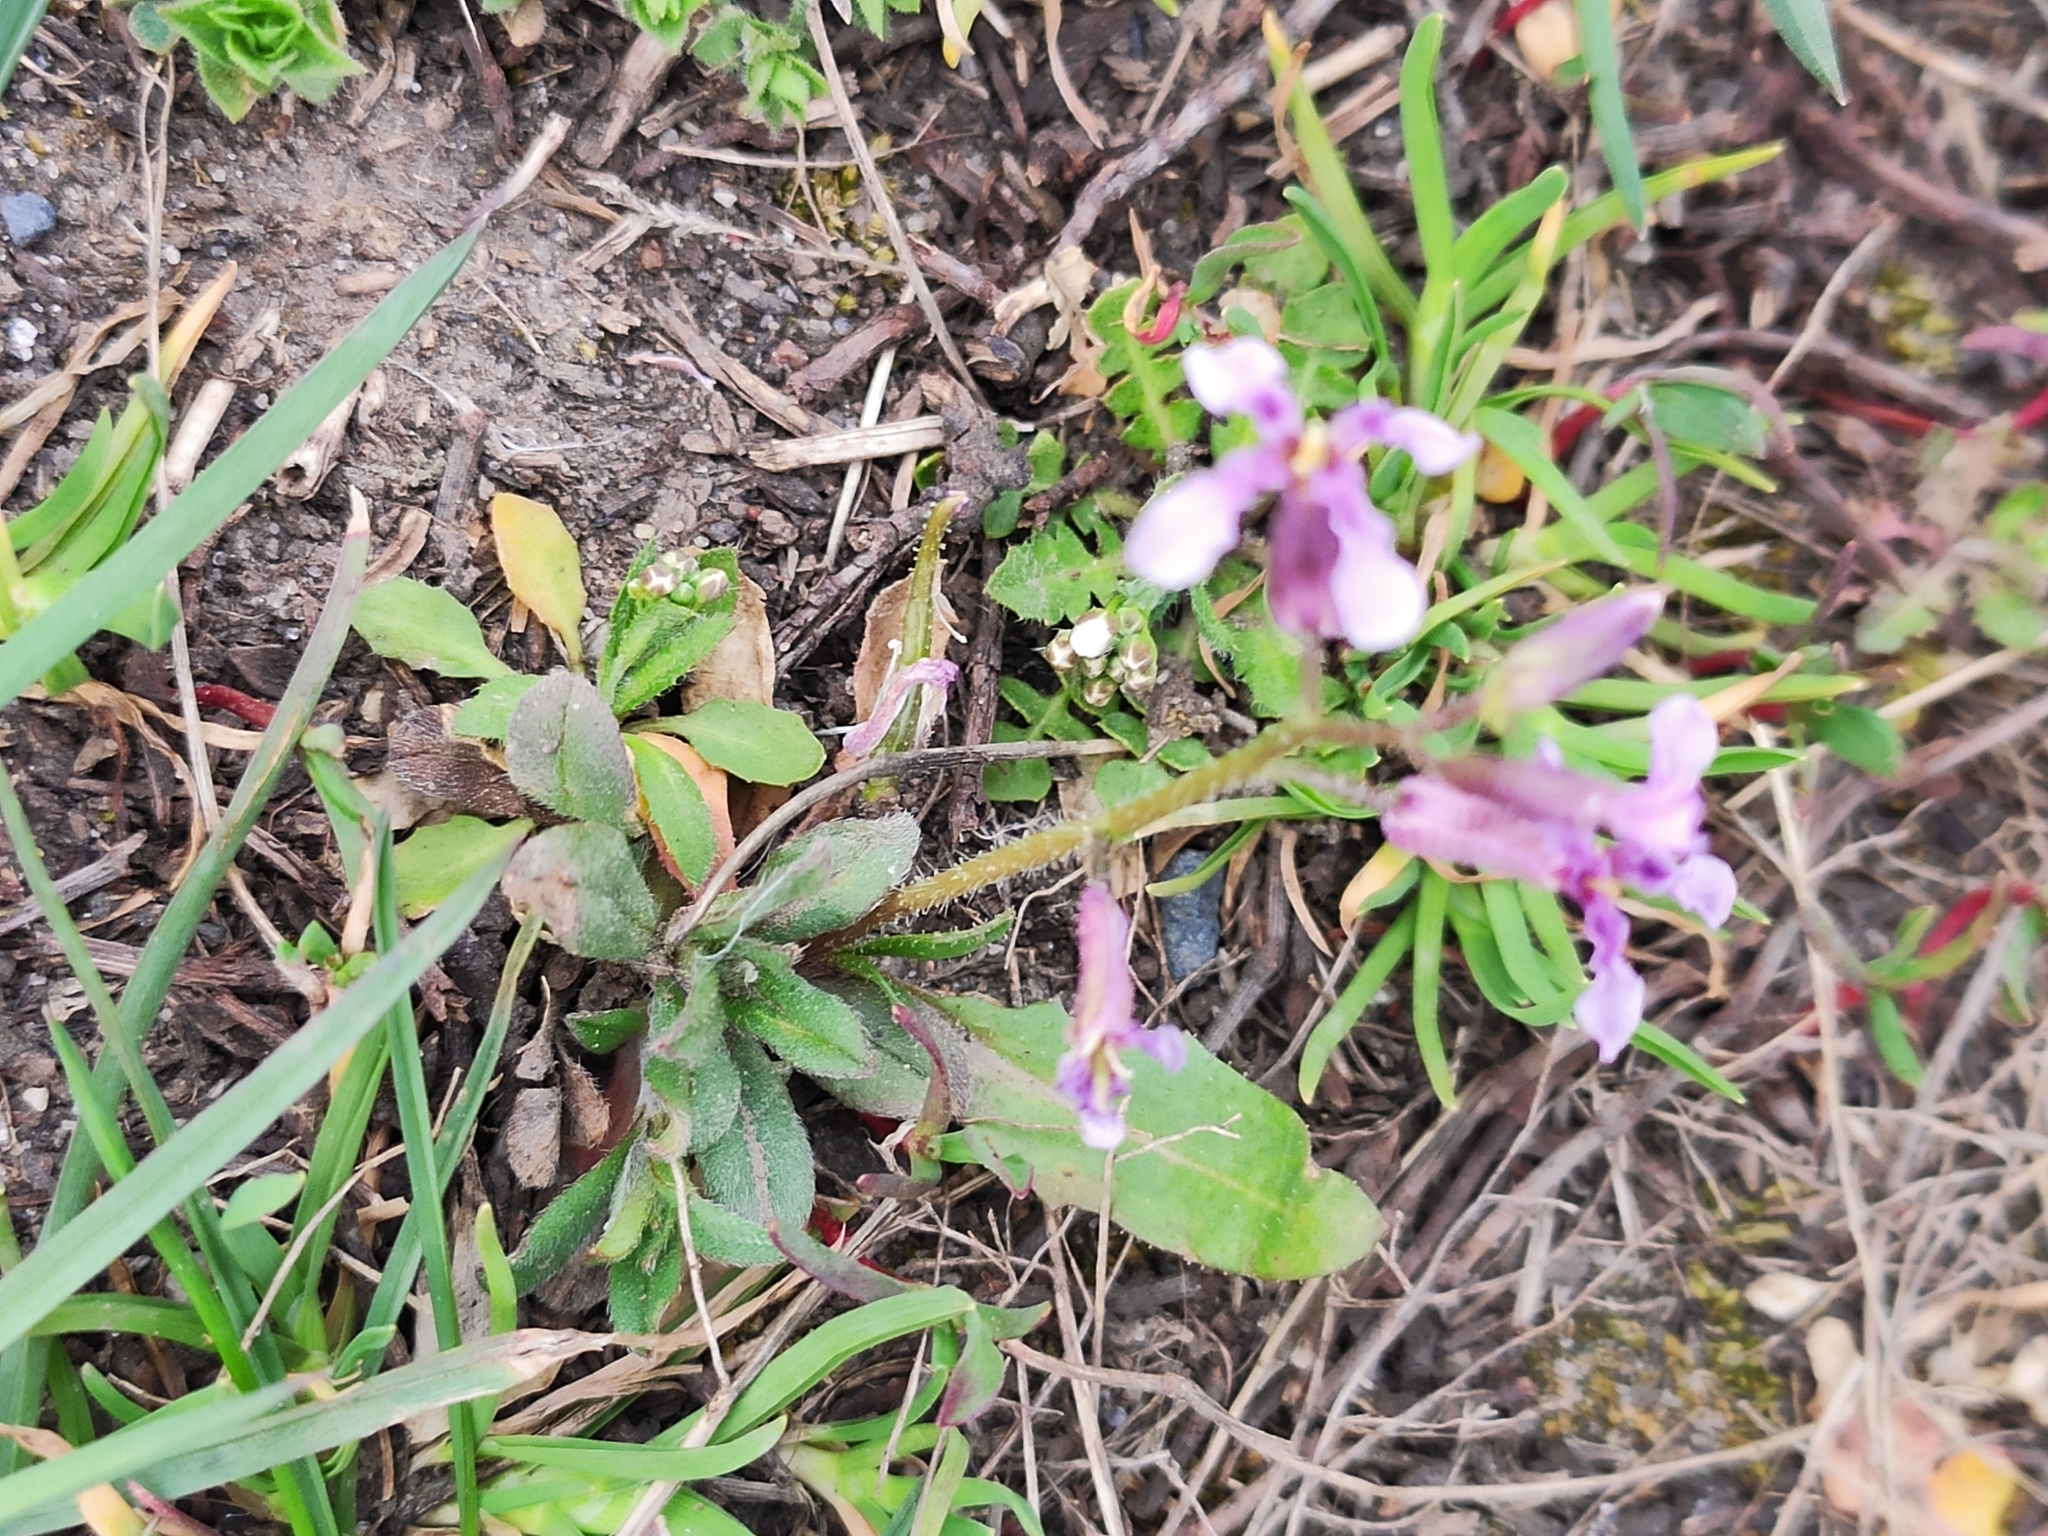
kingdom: Plantae
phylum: Tracheophyta
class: Magnoliopsida
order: Brassicales
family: Brassicaceae
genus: Chorispora
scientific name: Chorispora tenella
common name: Crossflower
